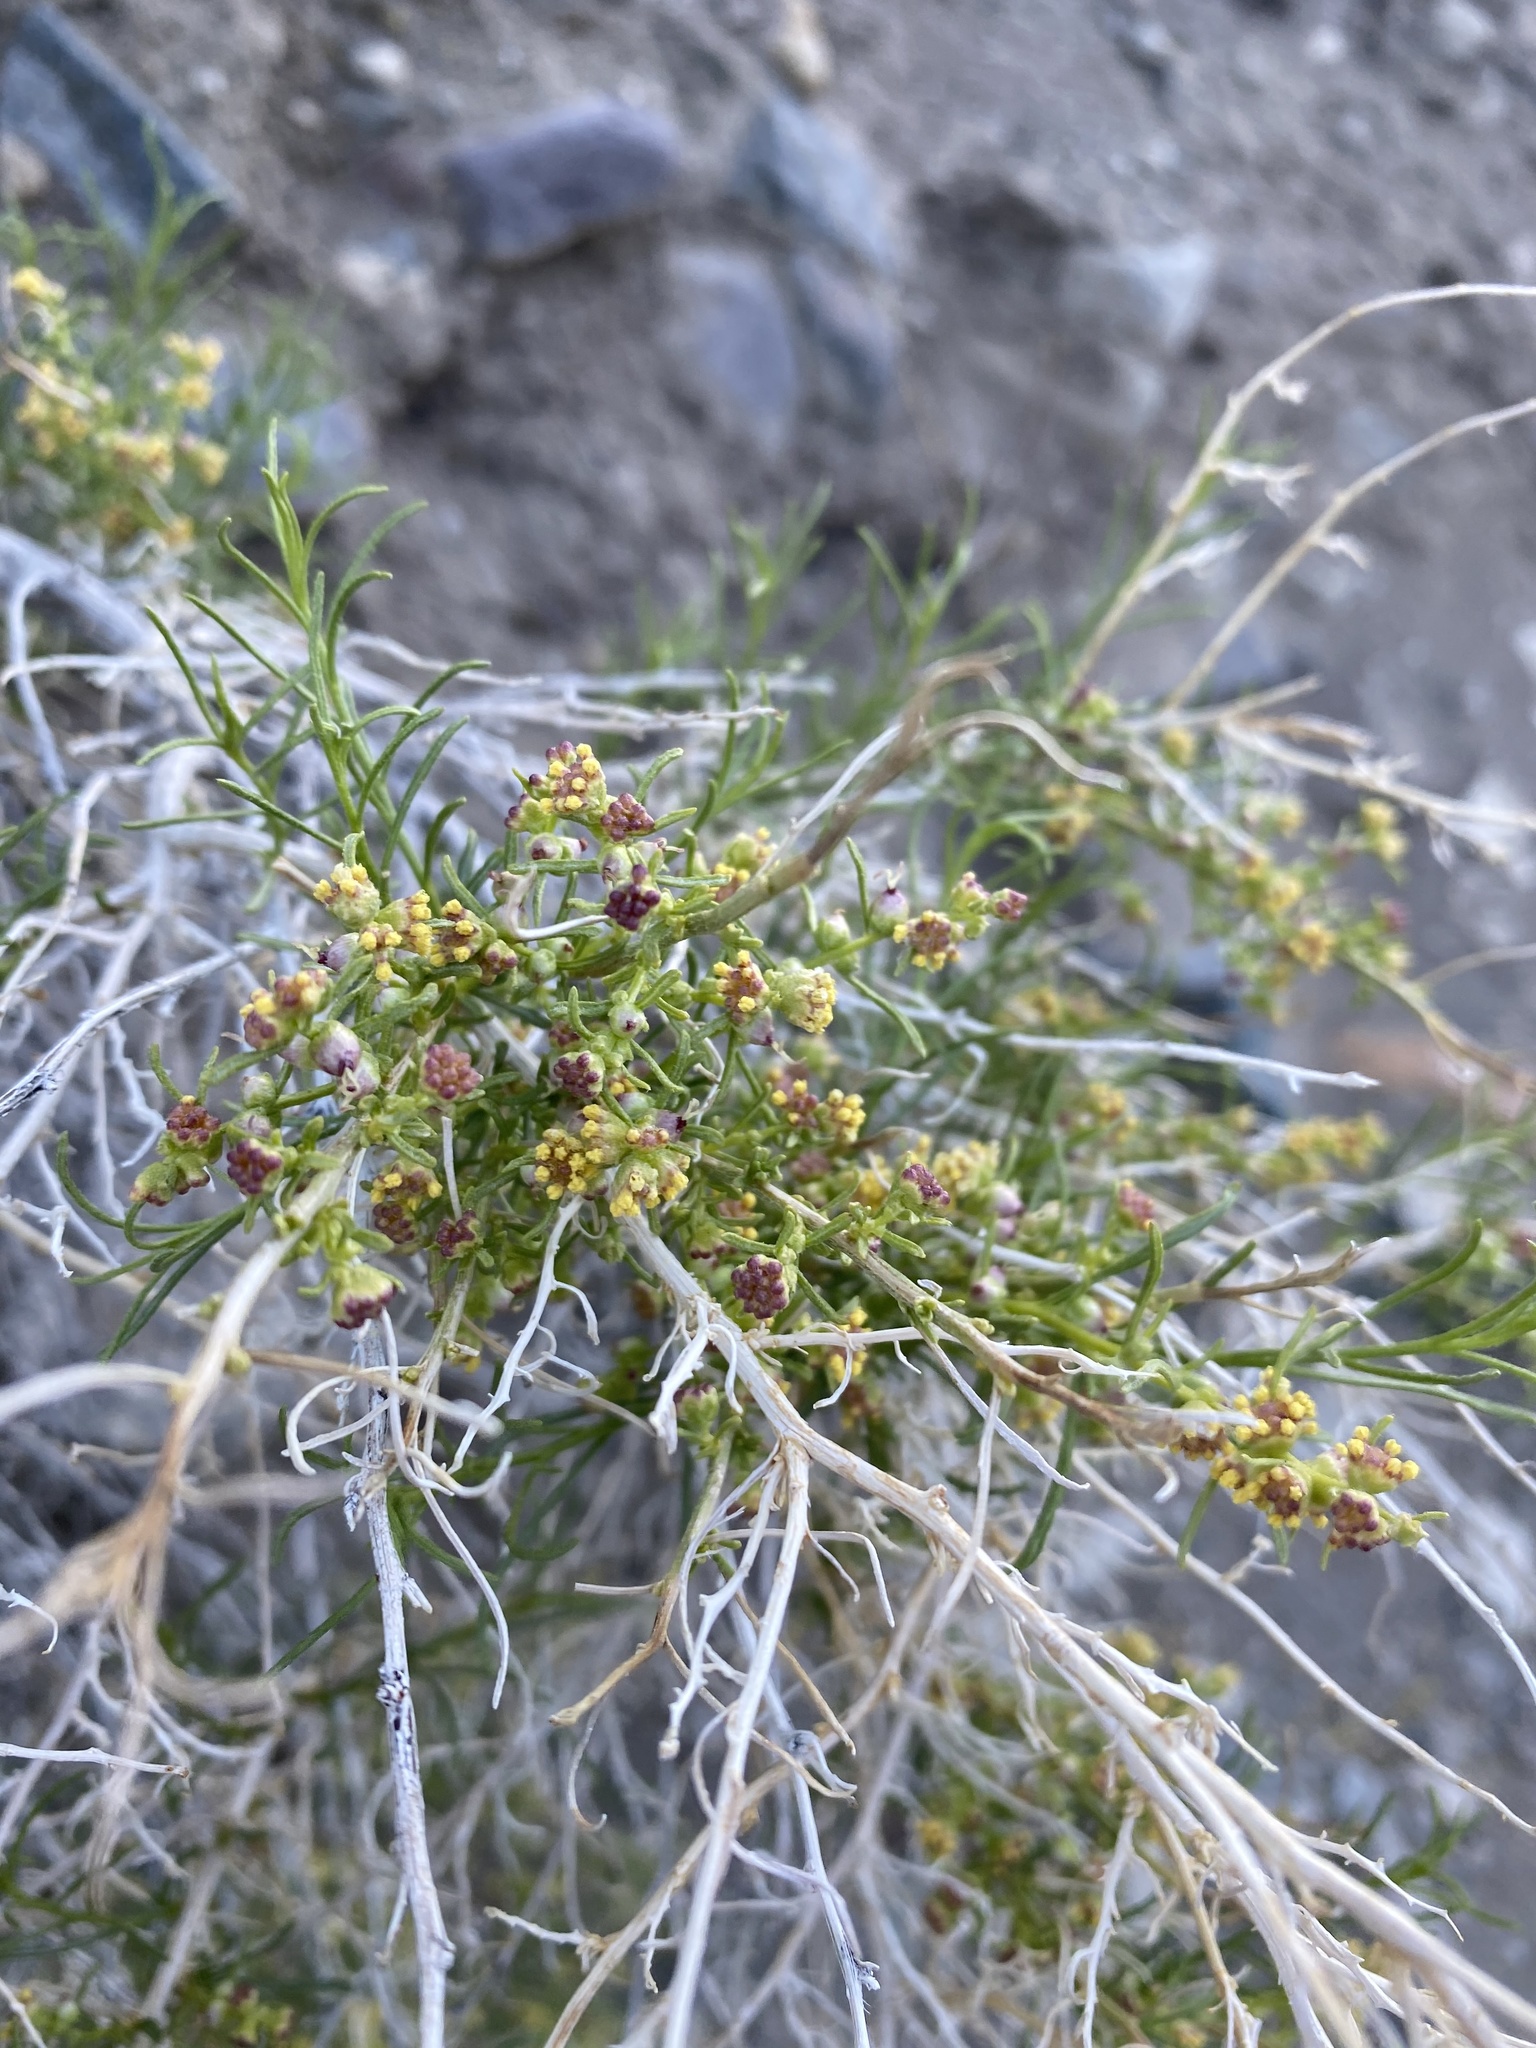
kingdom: Plantae
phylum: Tracheophyta
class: Magnoliopsida
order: Asterales
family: Asteraceae
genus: Ambrosia
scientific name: Ambrosia salsola
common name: Burrobrush
